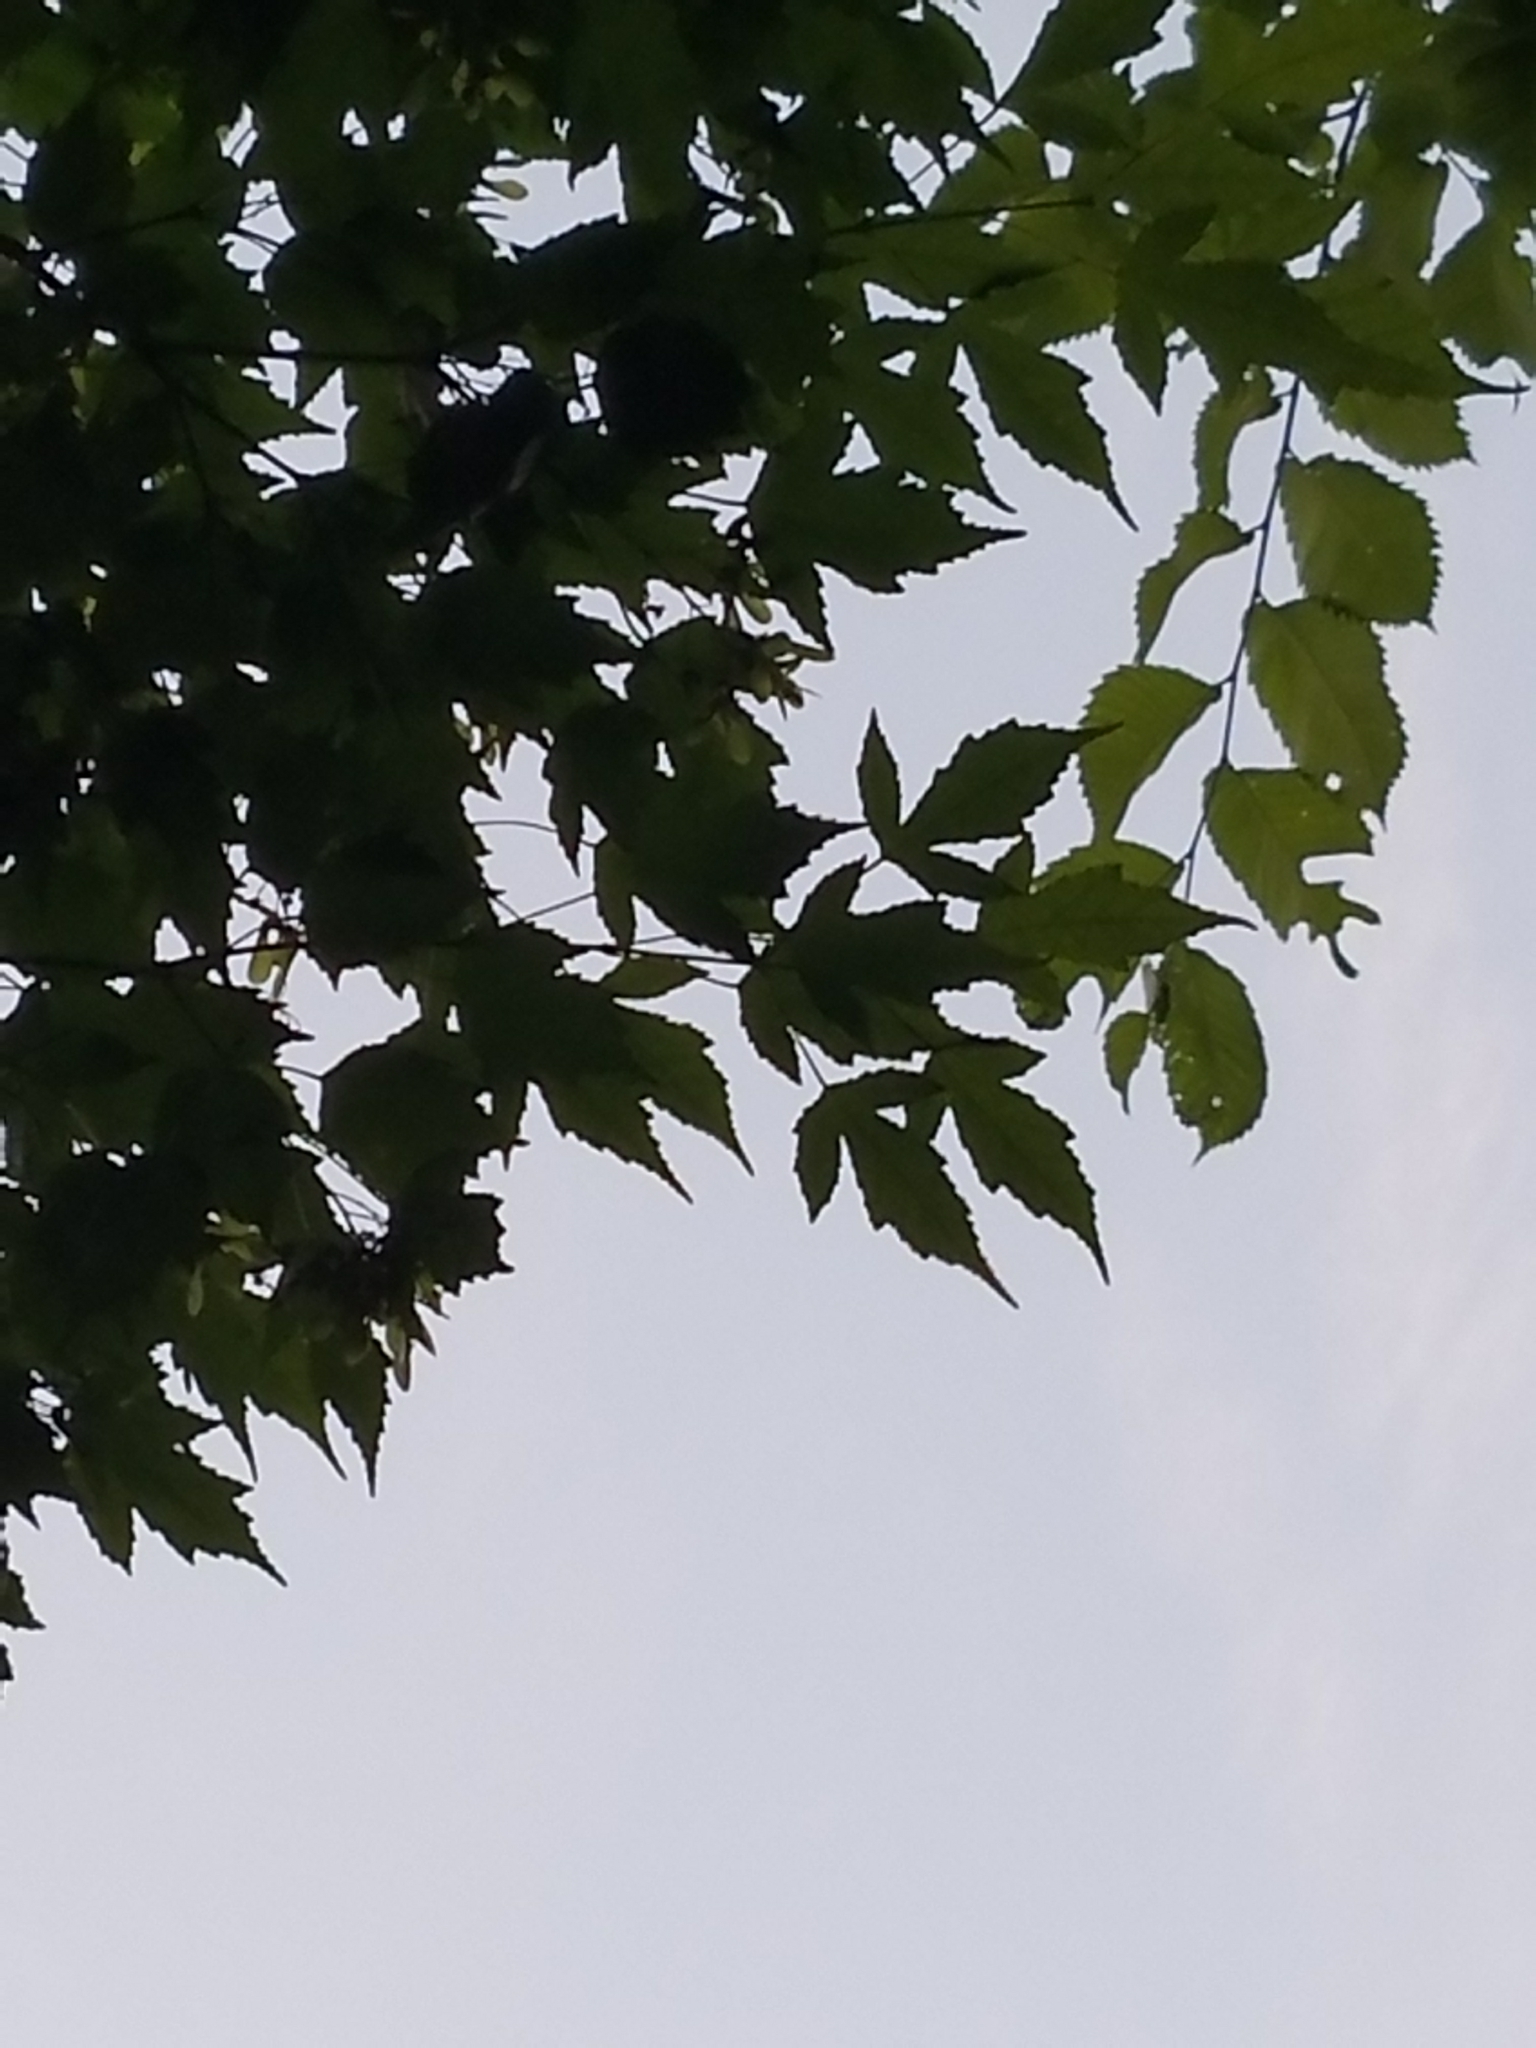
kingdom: Plantae
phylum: Tracheophyta
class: Magnoliopsida
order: Sapindales
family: Sapindaceae
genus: Acer
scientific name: Acer tataricum
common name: Tartar maple
